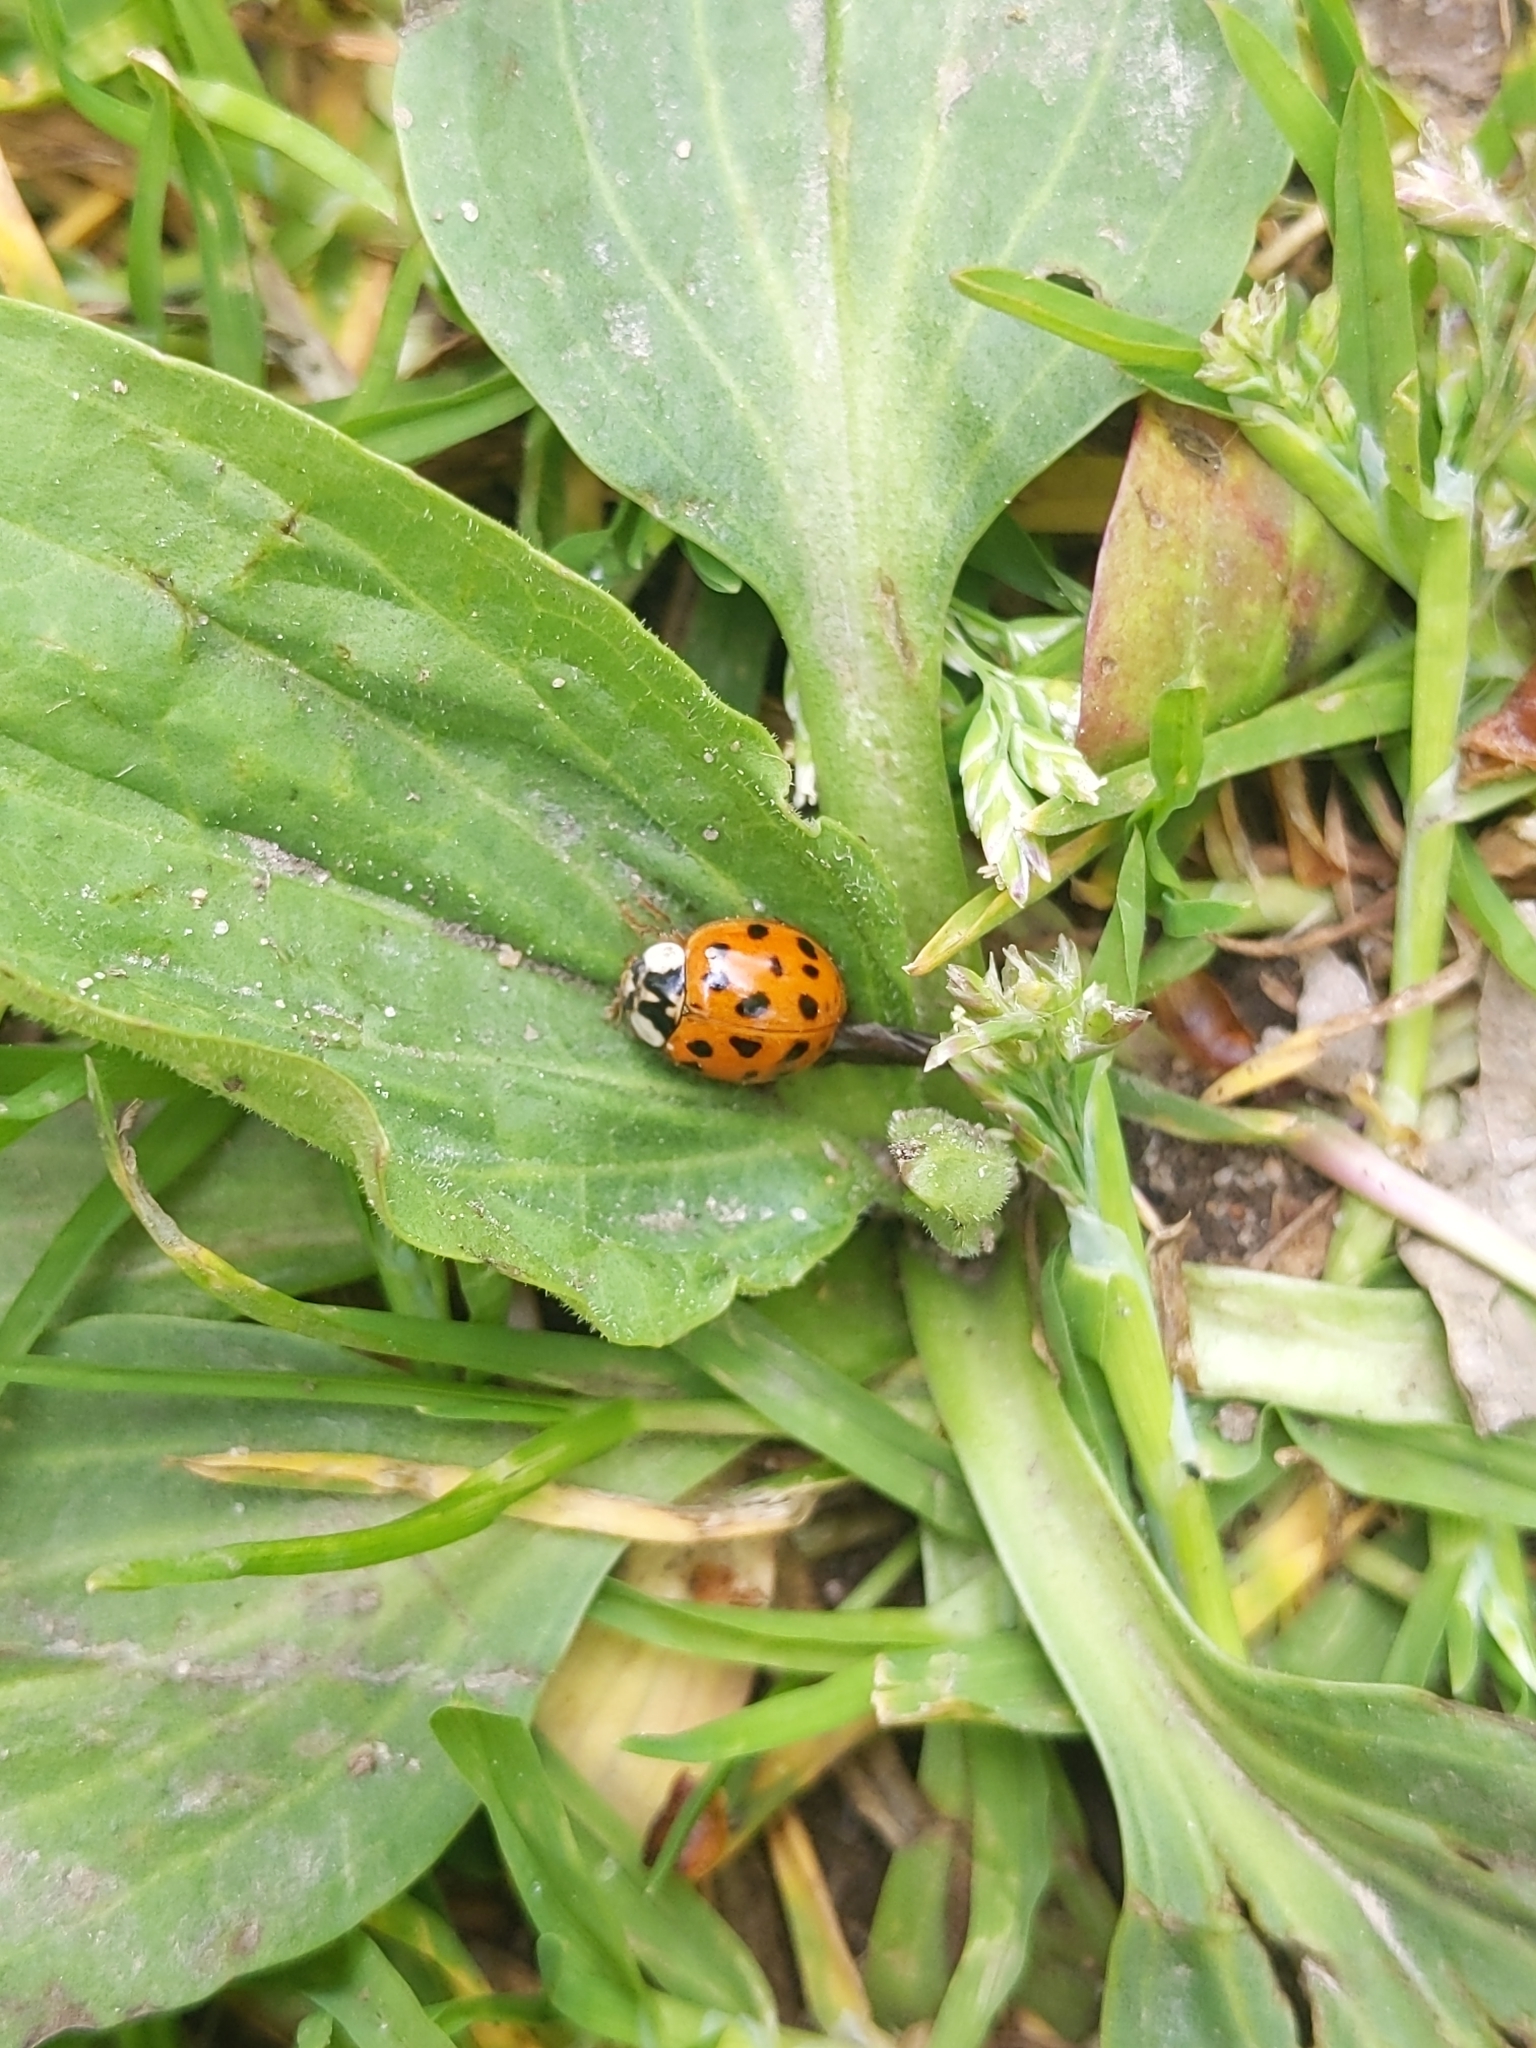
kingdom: Animalia
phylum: Arthropoda
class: Insecta
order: Coleoptera
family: Coccinellidae
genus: Harmonia
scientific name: Harmonia axyridis
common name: Harlequin ladybird
